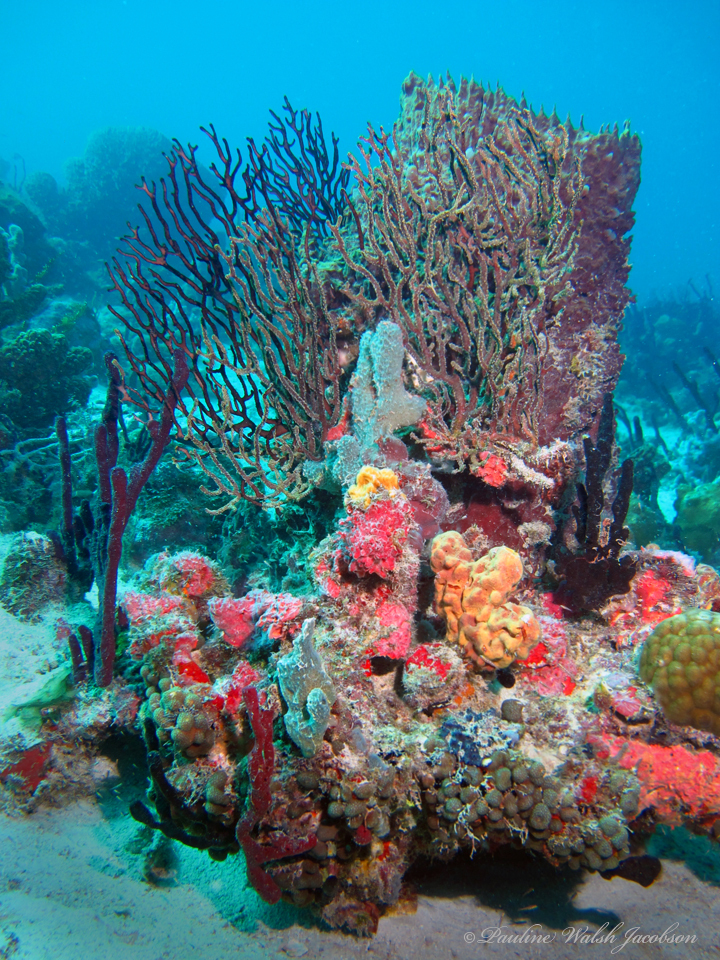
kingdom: Animalia
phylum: Cnidaria
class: Anthozoa
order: Malacalcyonacea
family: Melithaeidae
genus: Iciligorgia
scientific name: Iciligorgia schrammi
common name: Black sea fan
